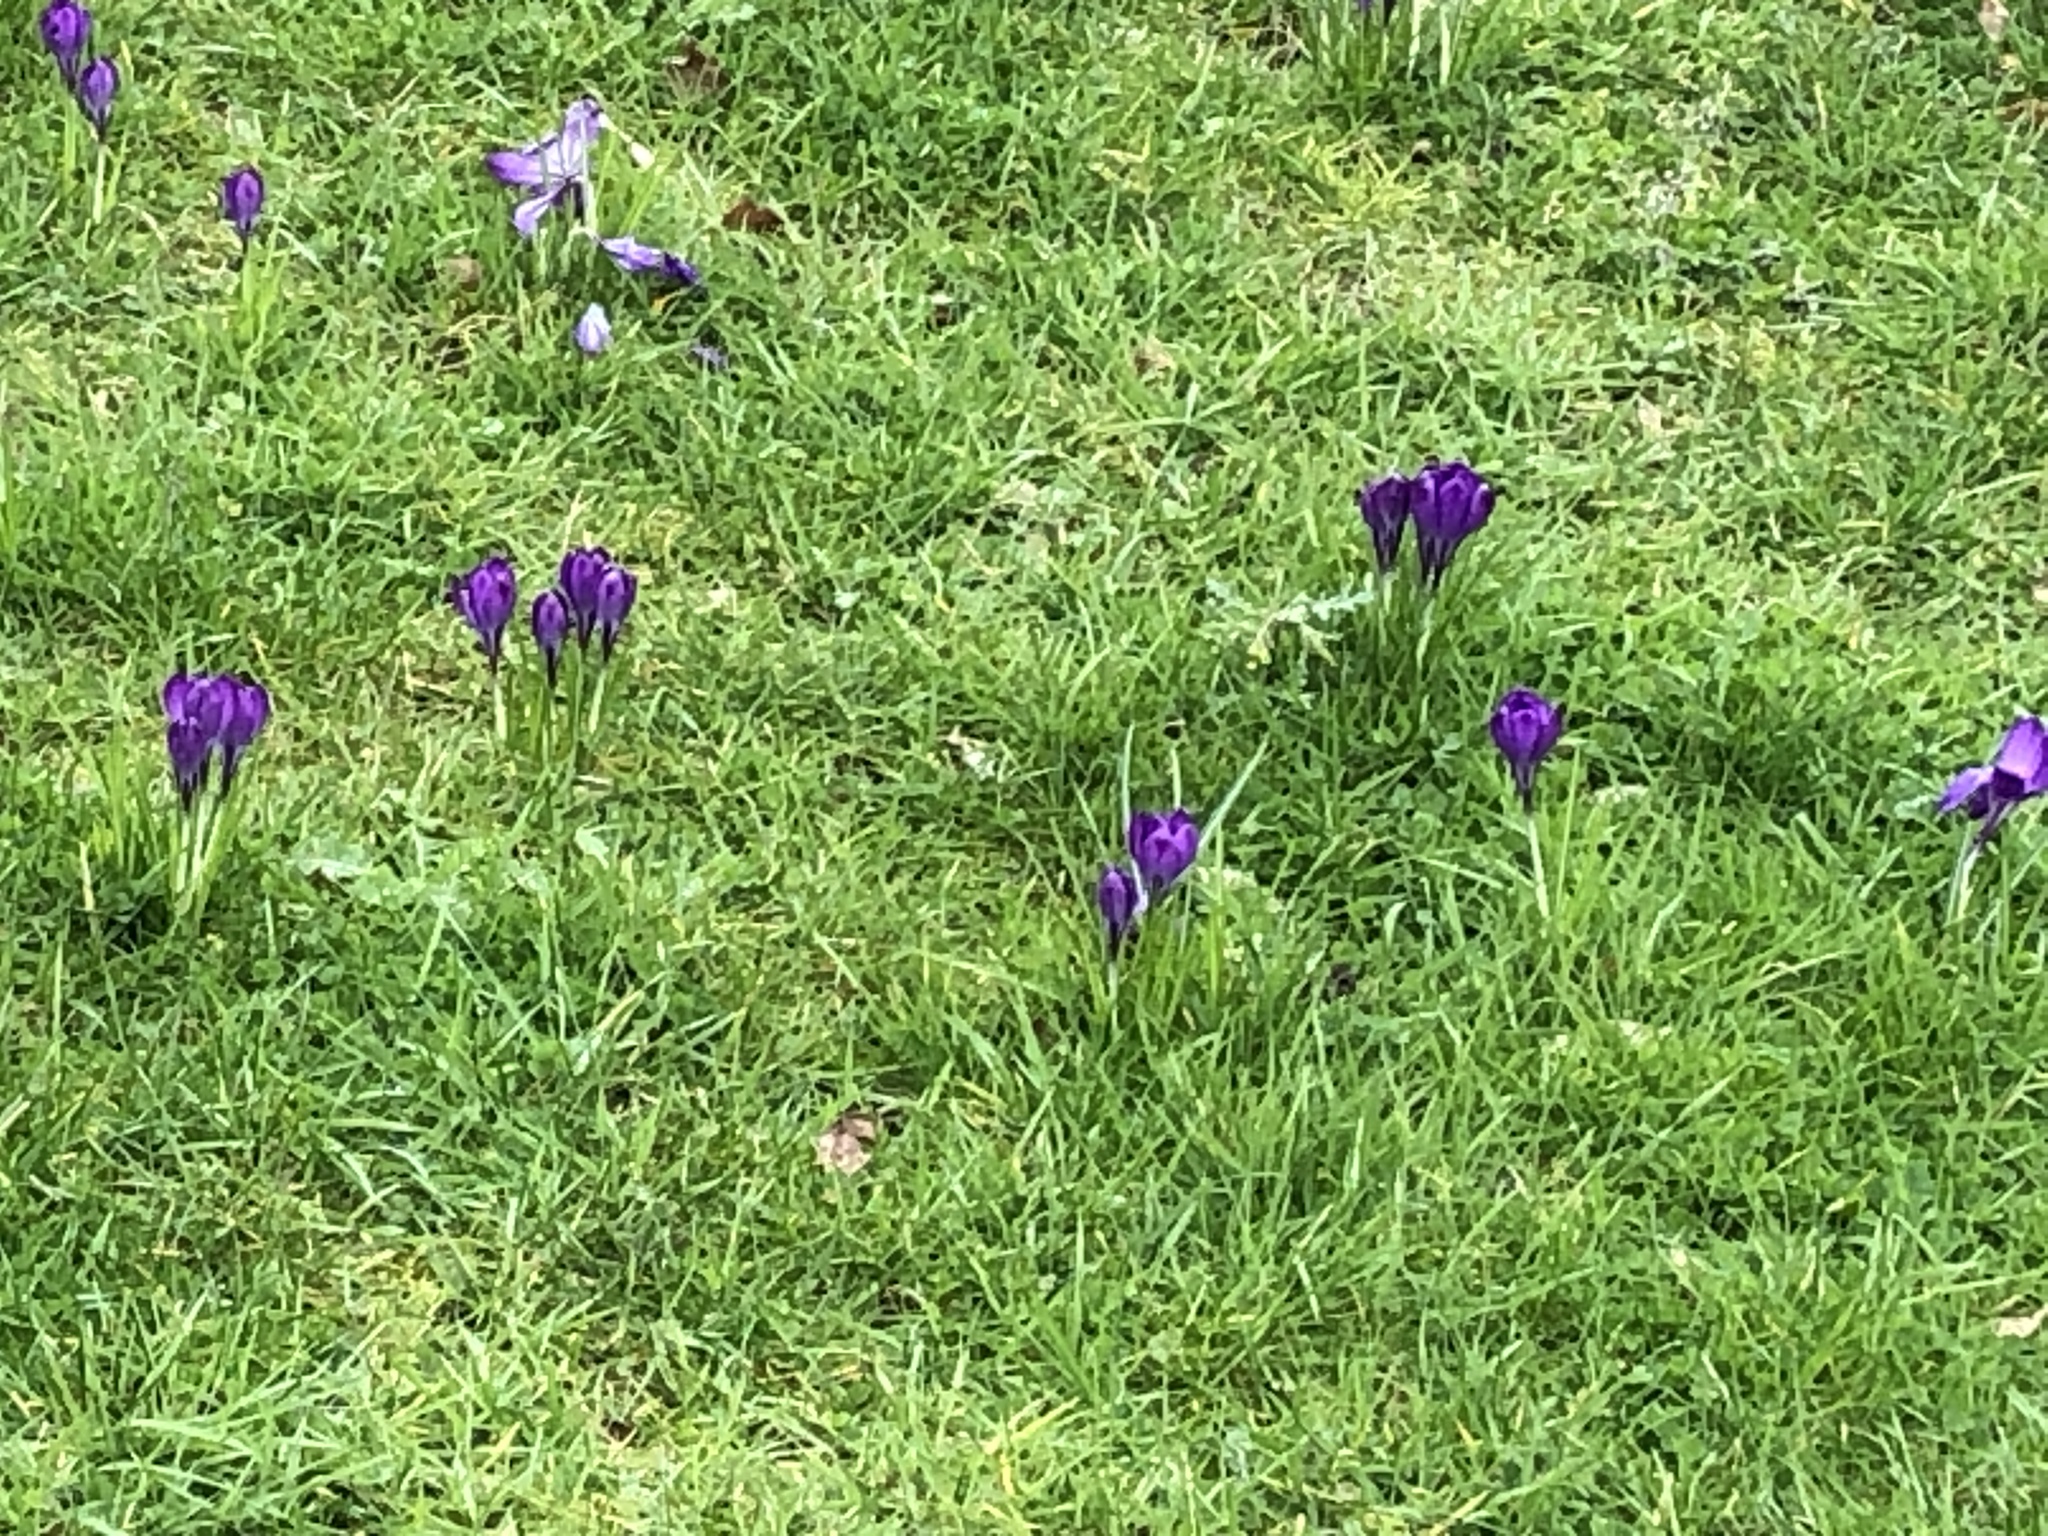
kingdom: Plantae
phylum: Tracheophyta
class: Liliopsida
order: Asparagales
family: Iridaceae
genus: Crocus
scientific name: Crocus
